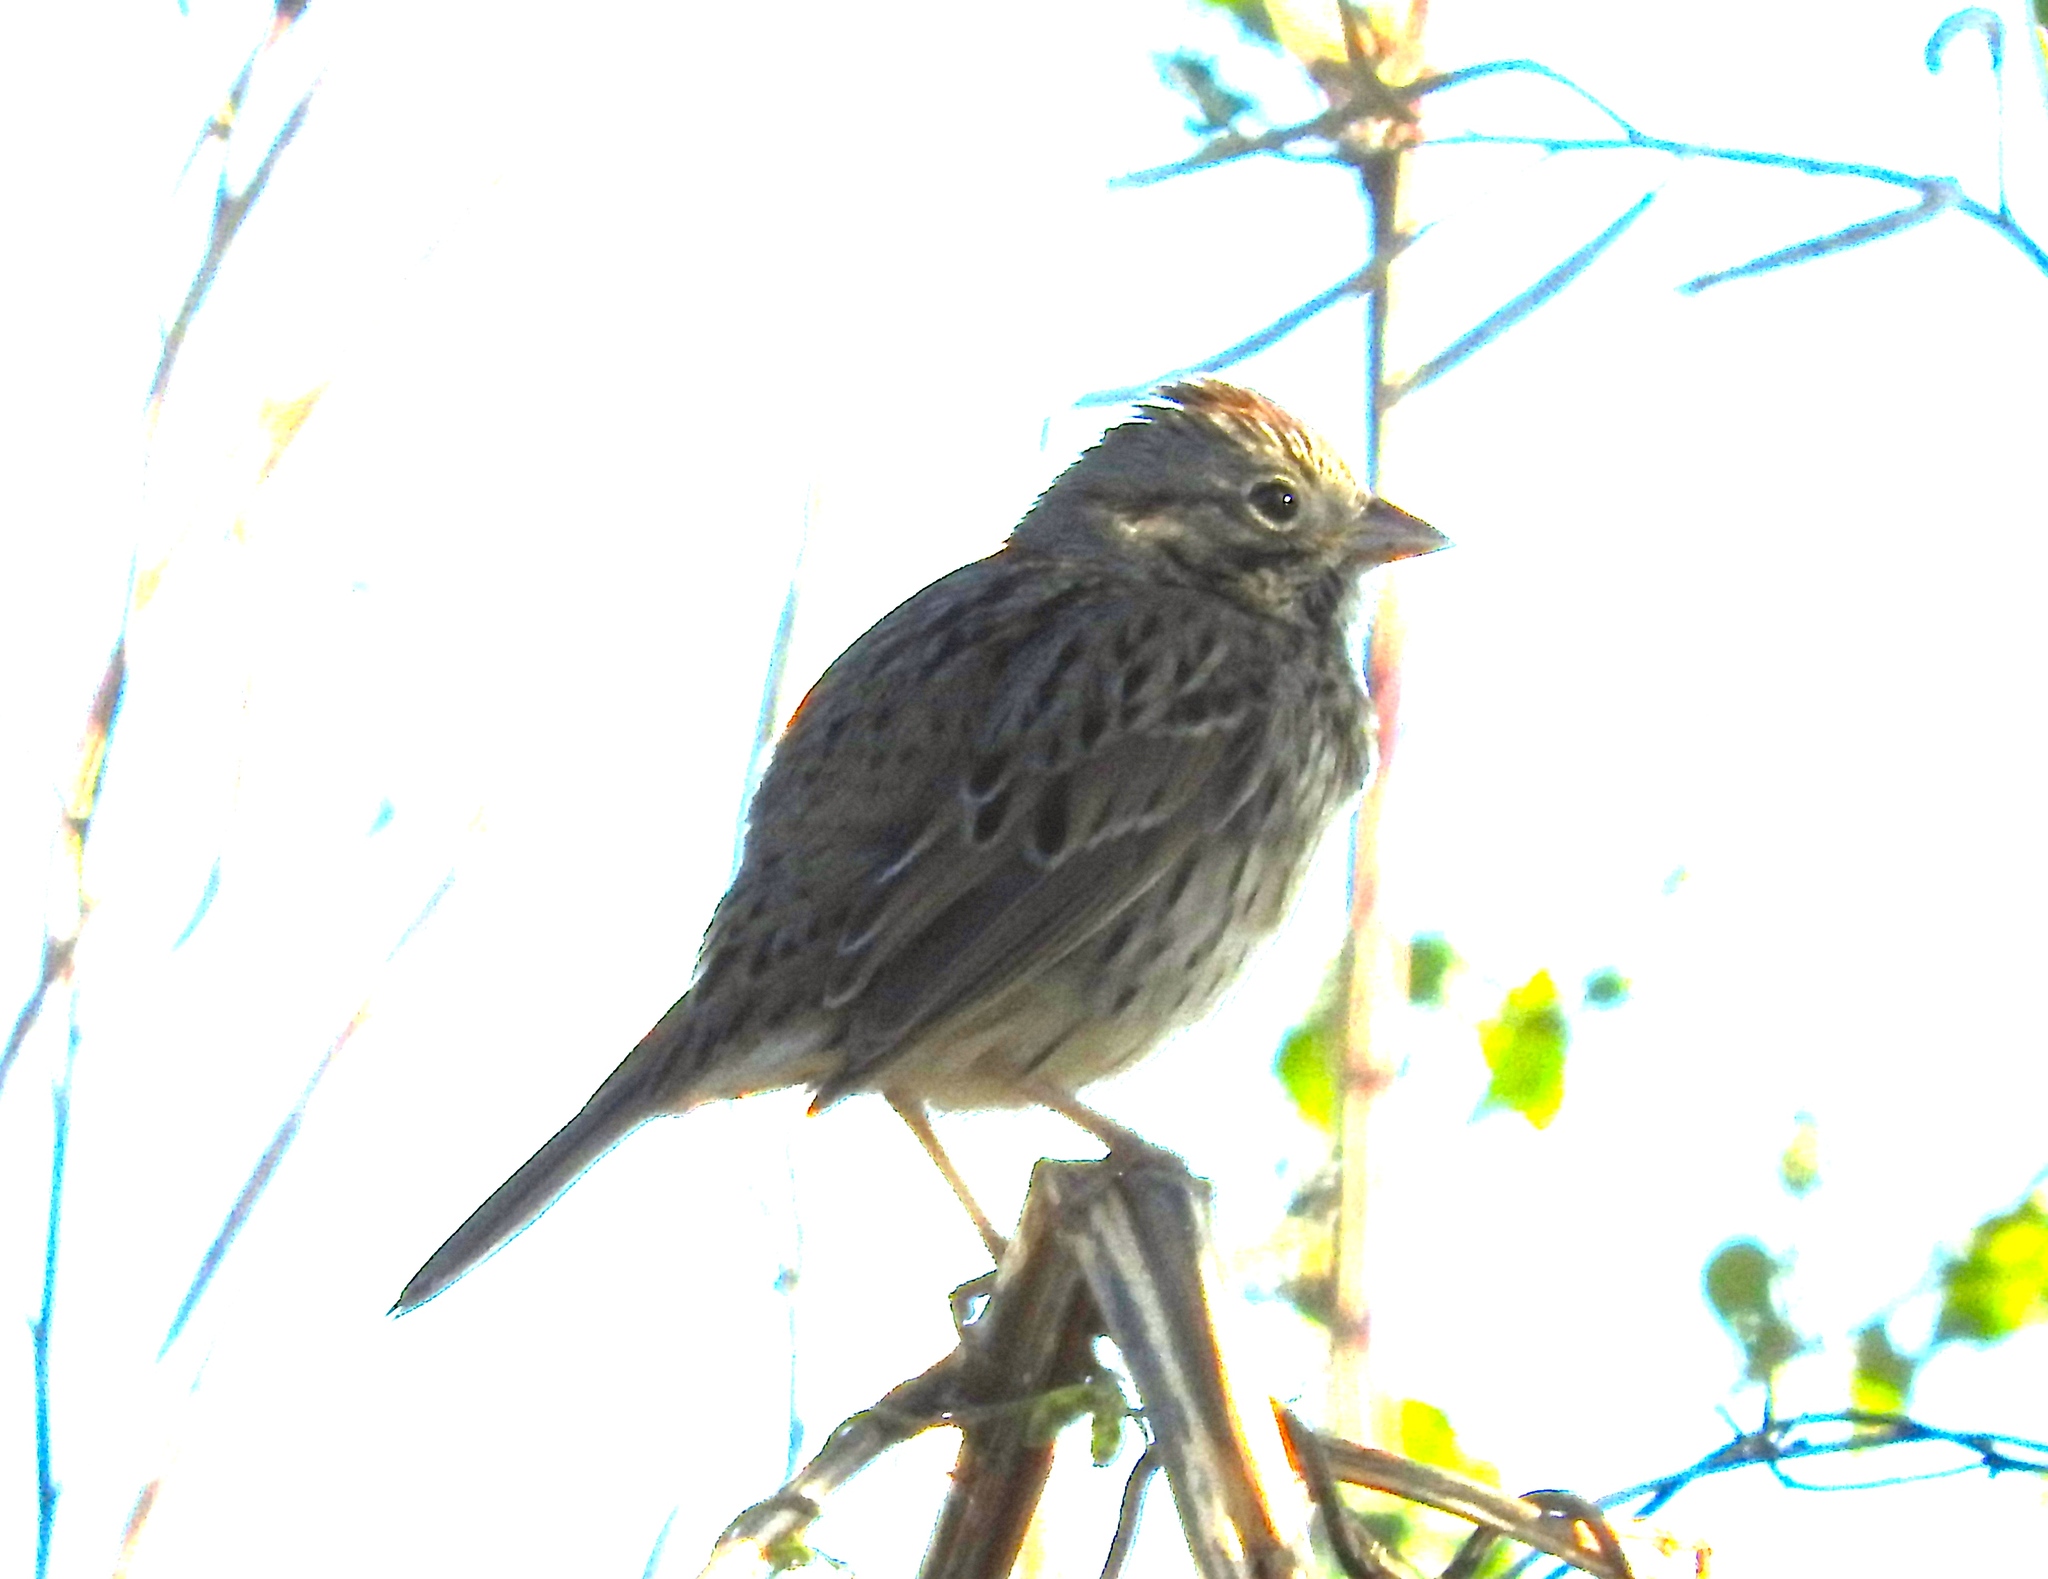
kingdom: Animalia
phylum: Chordata
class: Aves
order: Passeriformes
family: Passerellidae
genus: Melospiza
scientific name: Melospiza lincolnii
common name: Lincoln's sparrow
